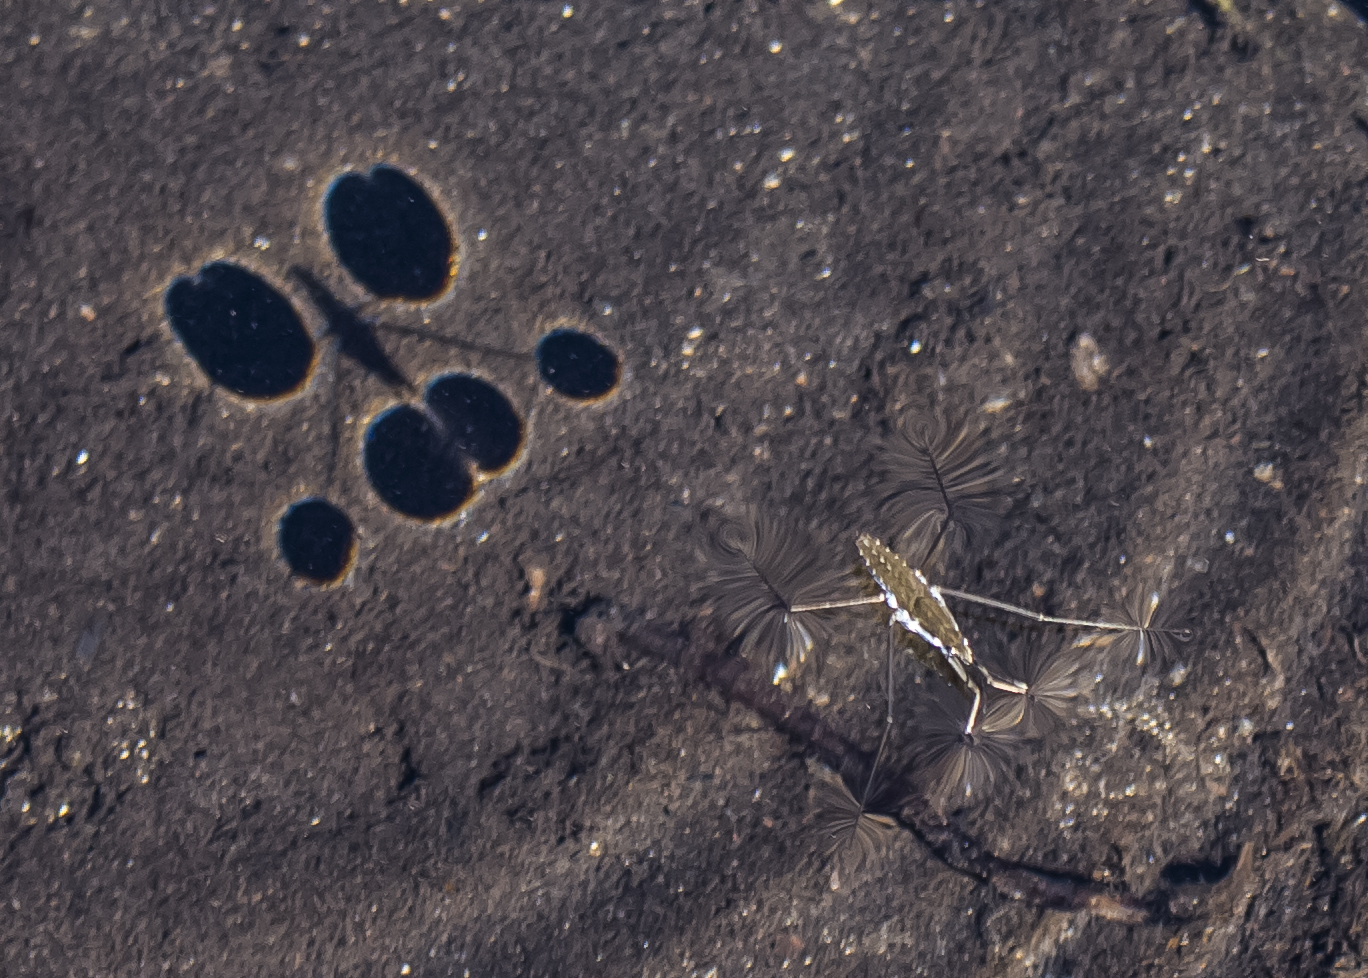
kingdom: Animalia
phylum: Arthropoda
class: Insecta
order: Hemiptera
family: Gerridae
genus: Aquarius
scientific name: Aquarius remigis
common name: Common water strider
